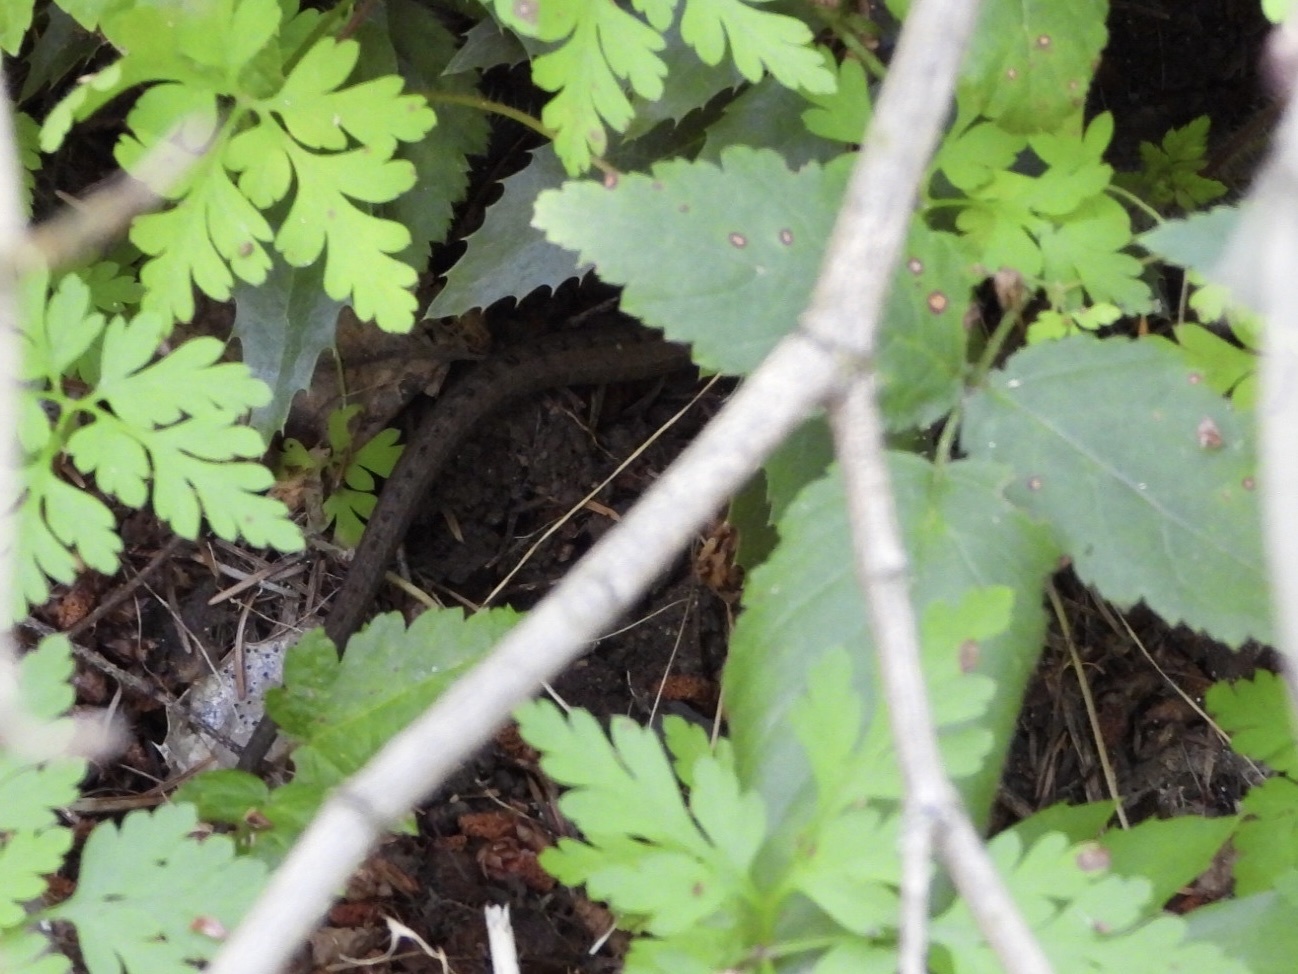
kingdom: Animalia
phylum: Chordata
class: Squamata
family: Anguidae
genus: Elgaria
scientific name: Elgaria coerulea
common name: Northern alligator lizard
